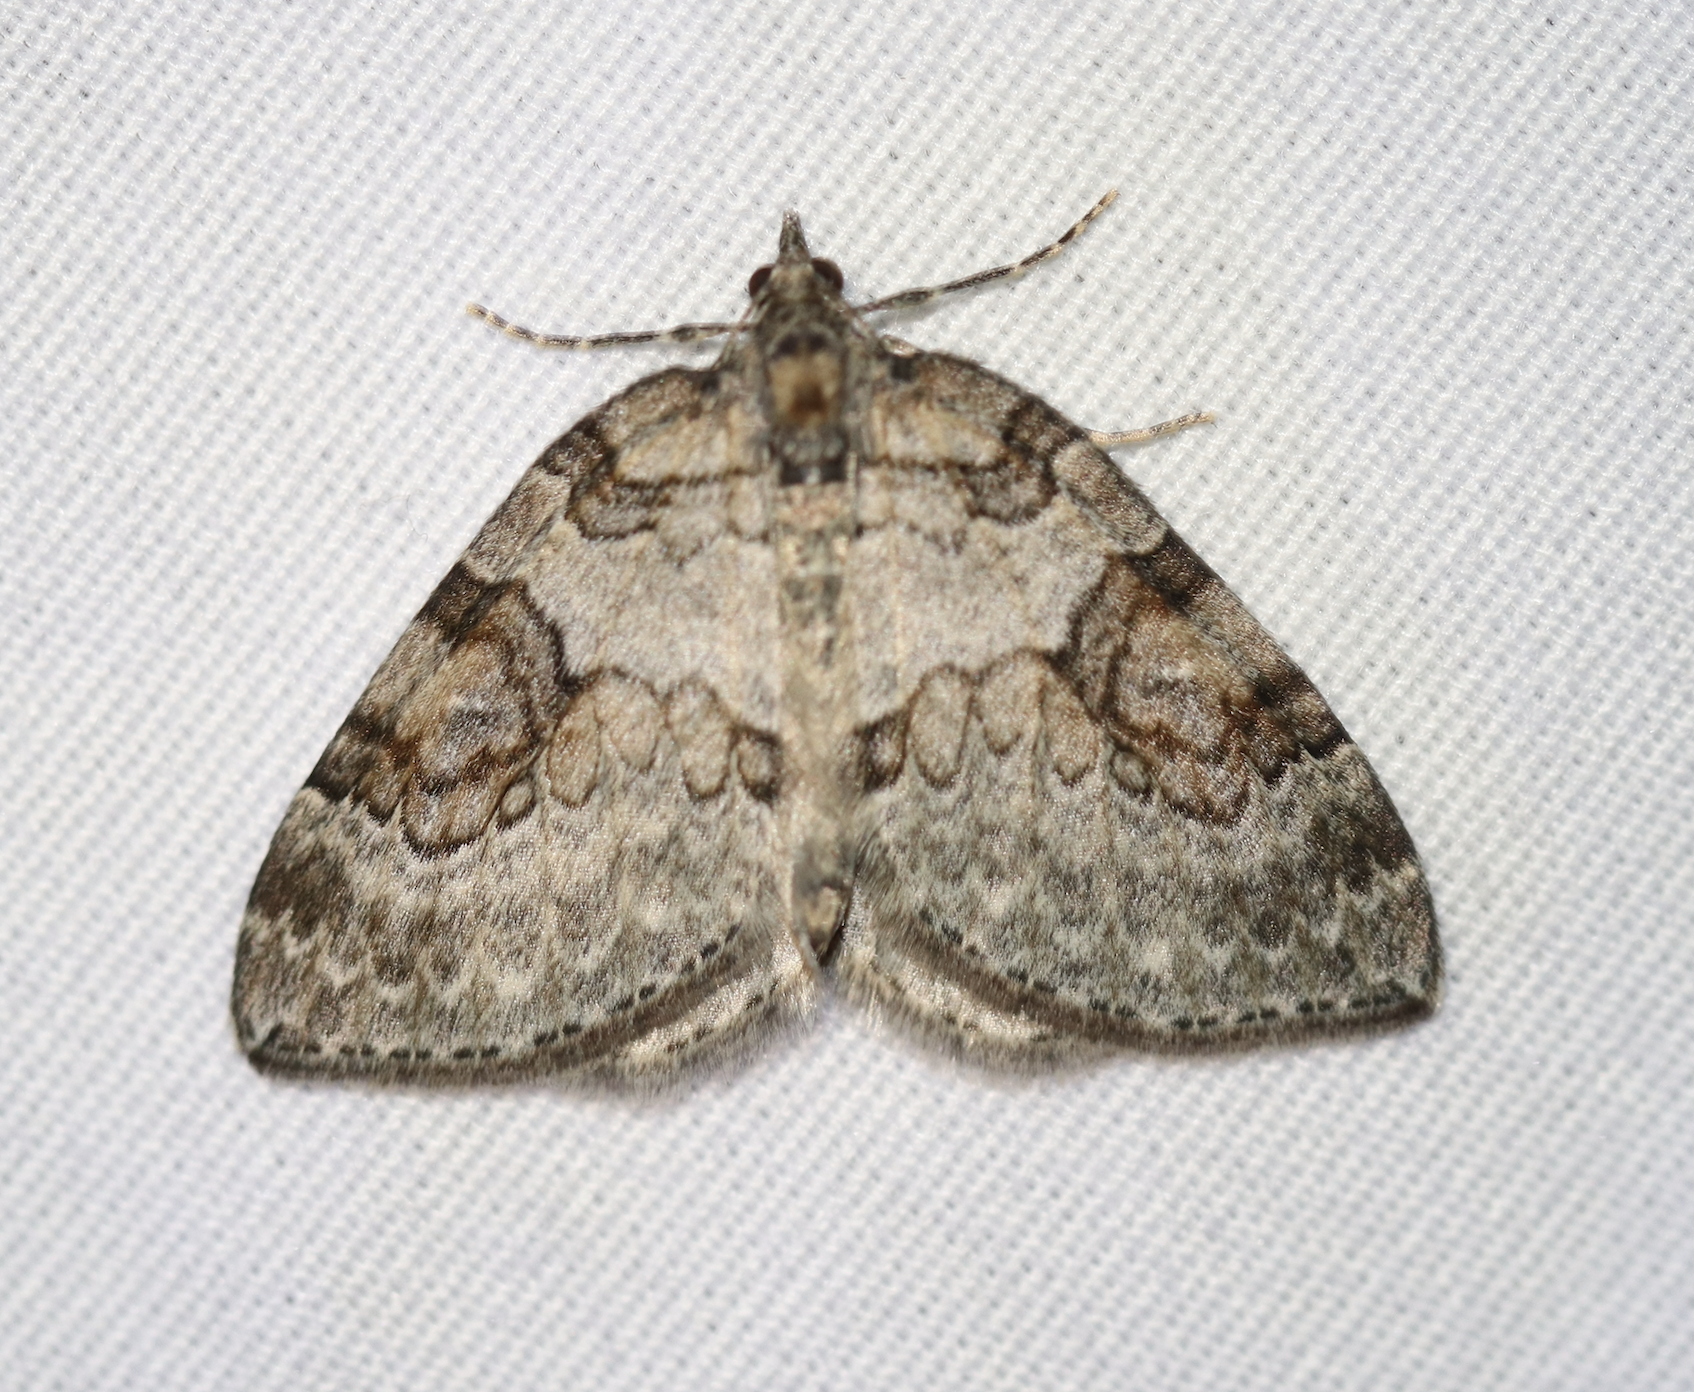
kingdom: Animalia
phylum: Arthropoda
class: Insecta
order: Lepidoptera
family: Geometridae
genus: Plemyria
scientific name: Plemyria georgii
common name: George's carpet moth
